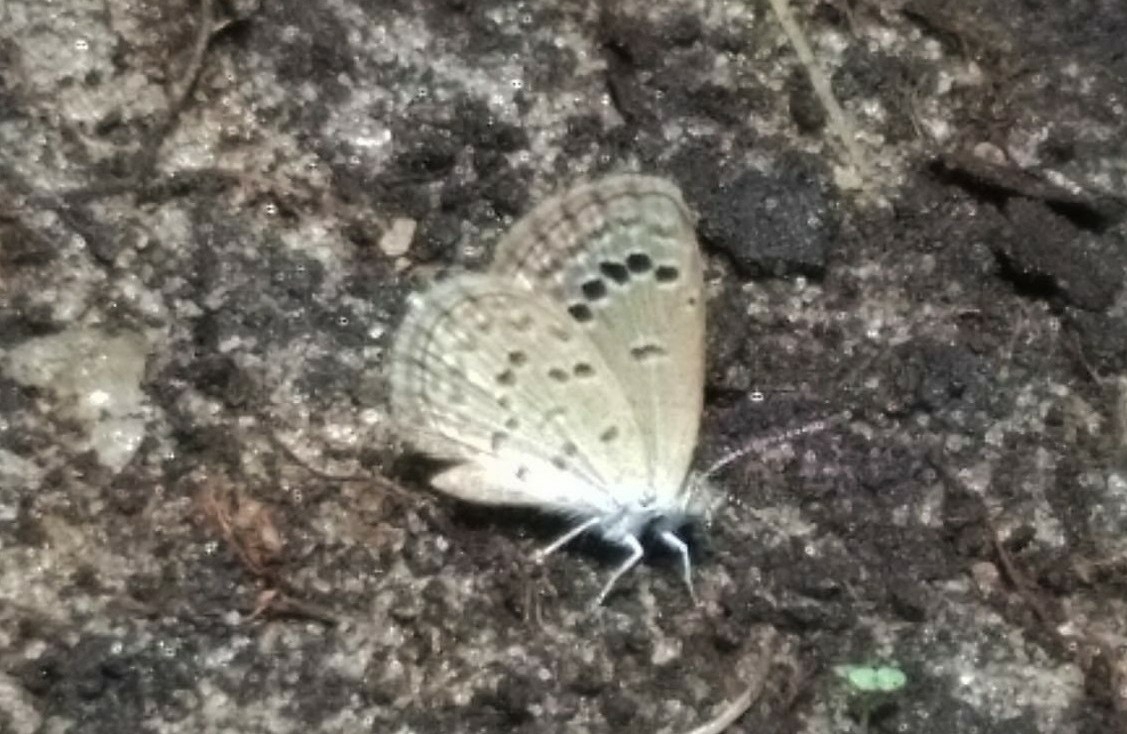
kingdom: Animalia
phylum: Arthropoda
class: Insecta
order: Lepidoptera
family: Lycaenidae
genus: Zizina
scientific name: Zizina otis
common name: Lesser grass blue
